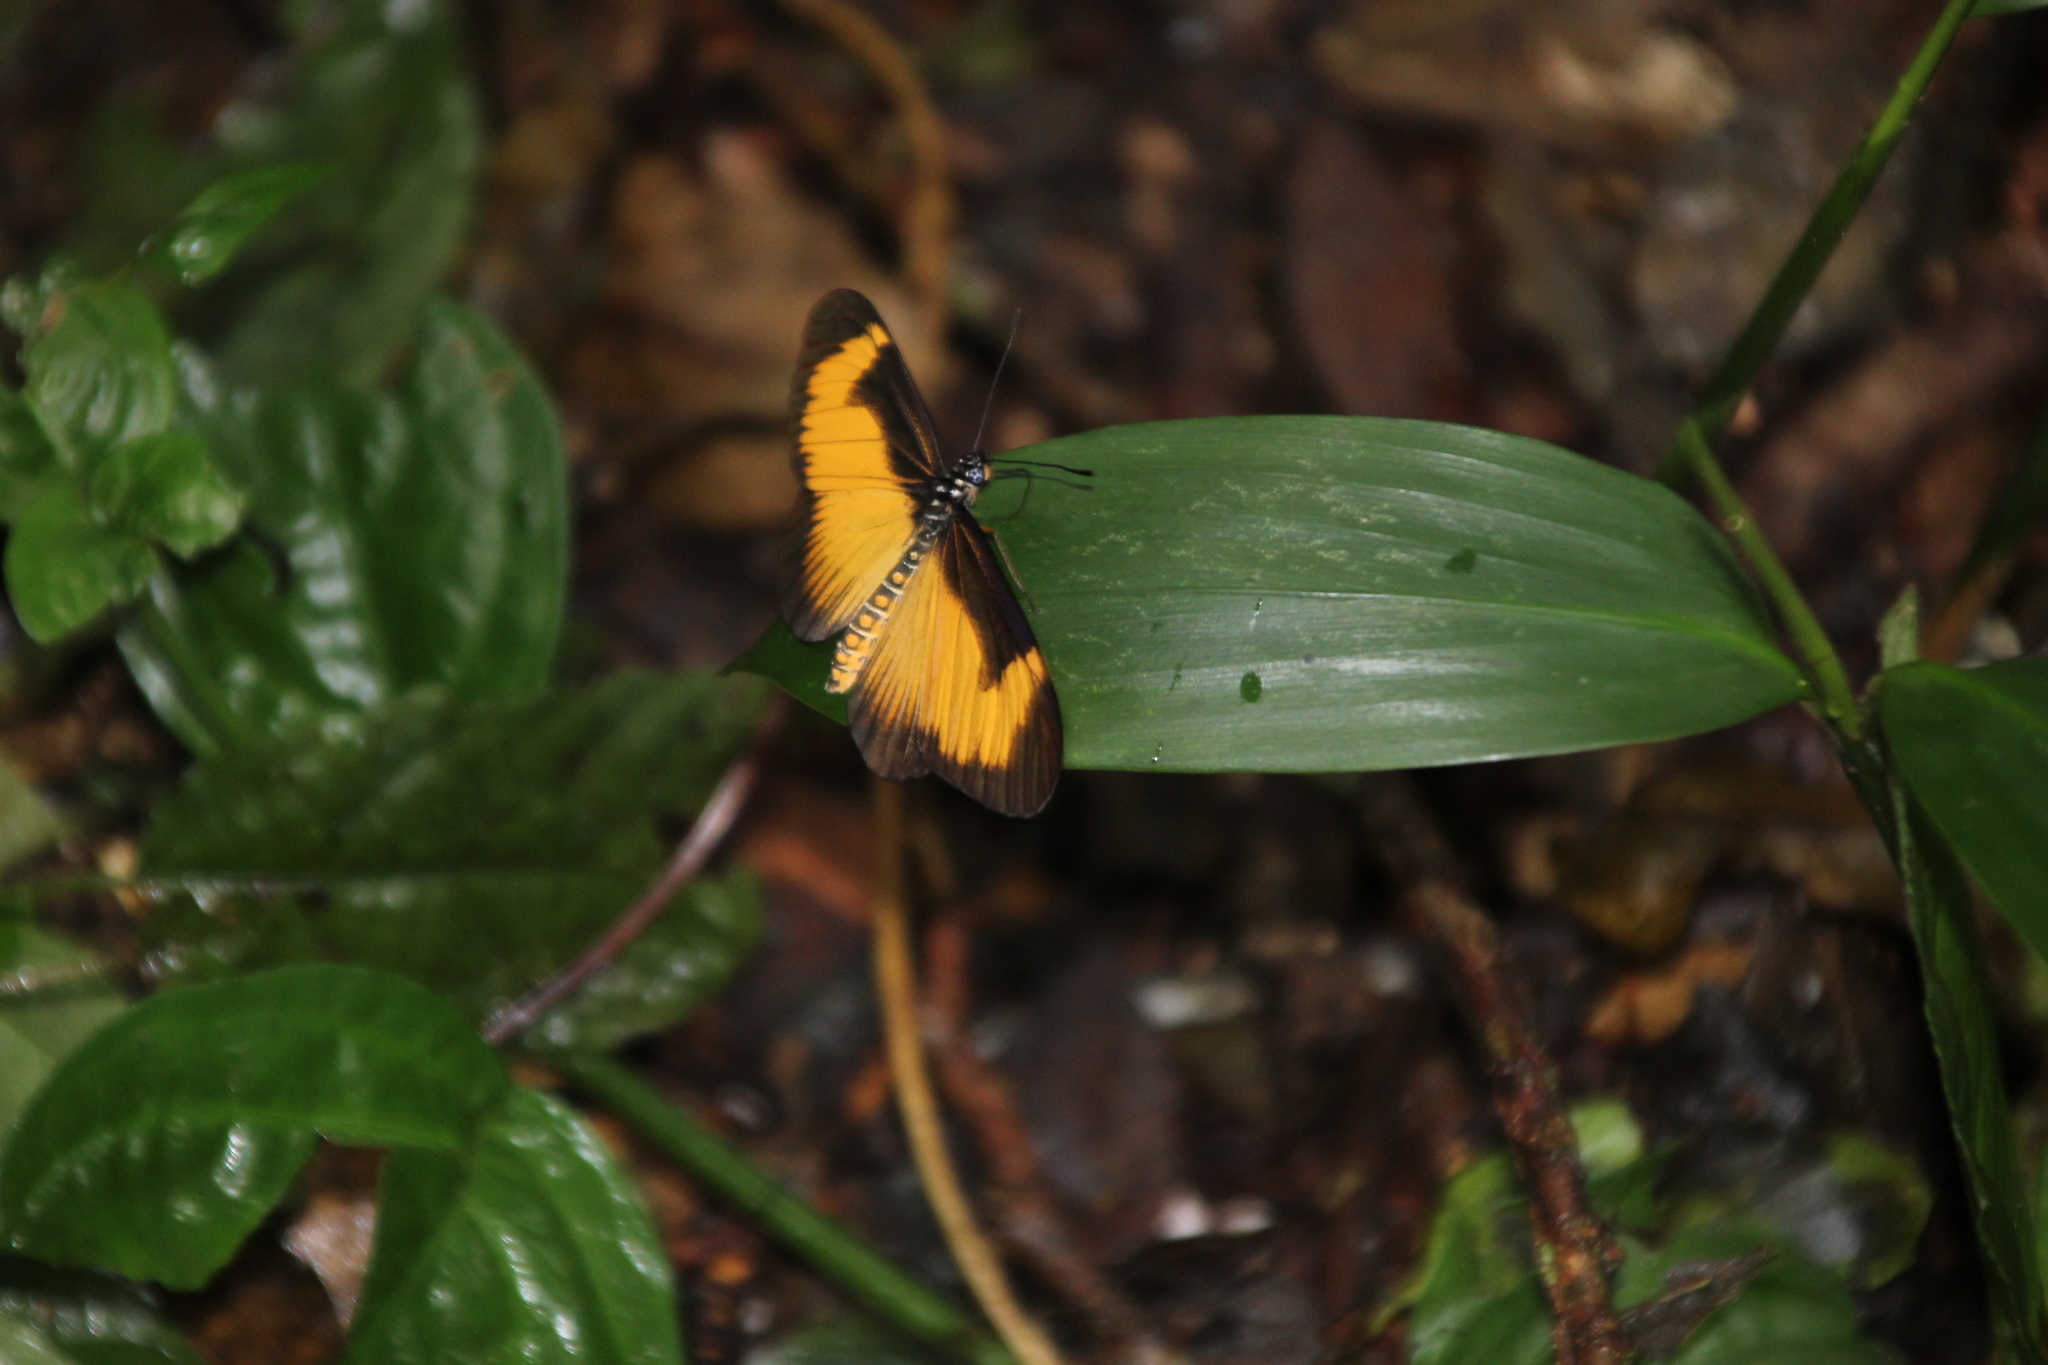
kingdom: Animalia
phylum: Arthropoda
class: Insecta
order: Lepidoptera
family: Nymphalidae
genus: Acraea
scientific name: Acraea
